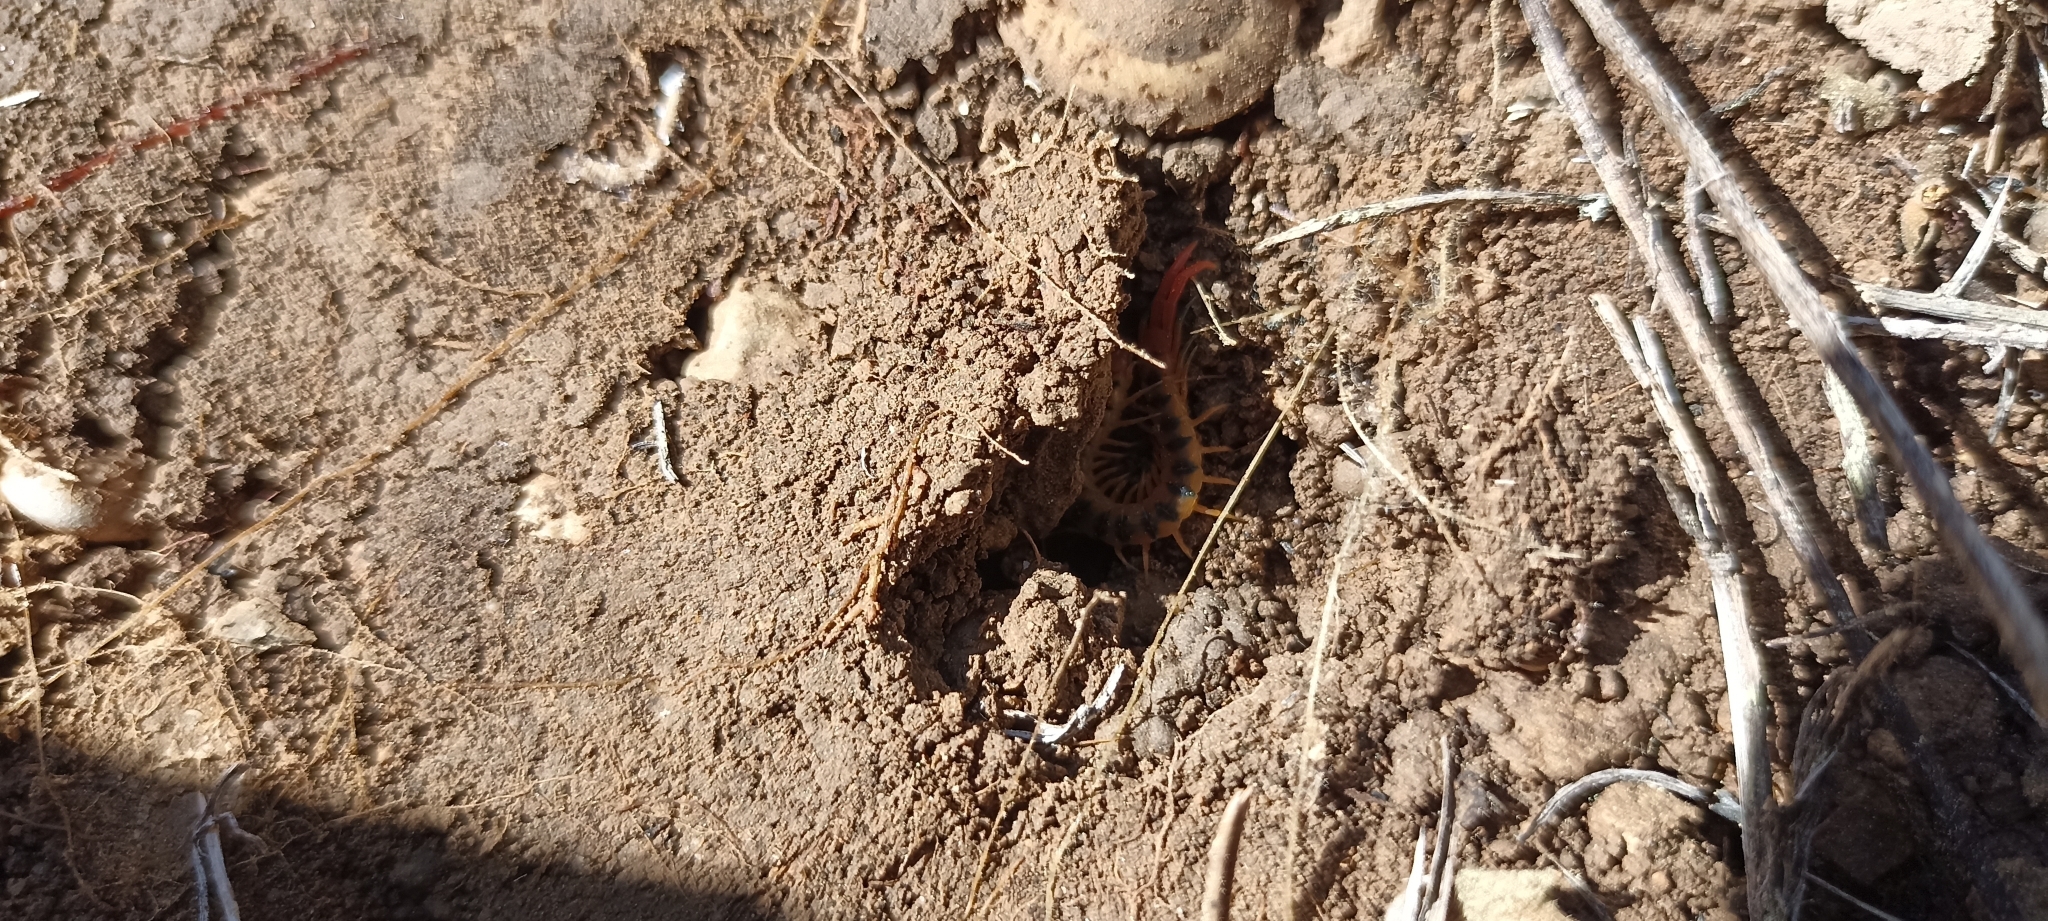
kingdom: Animalia
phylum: Arthropoda
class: Chilopoda
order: Scolopendromorpha
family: Scolopendridae
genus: Scolopendra
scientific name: Scolopendra cingulata
